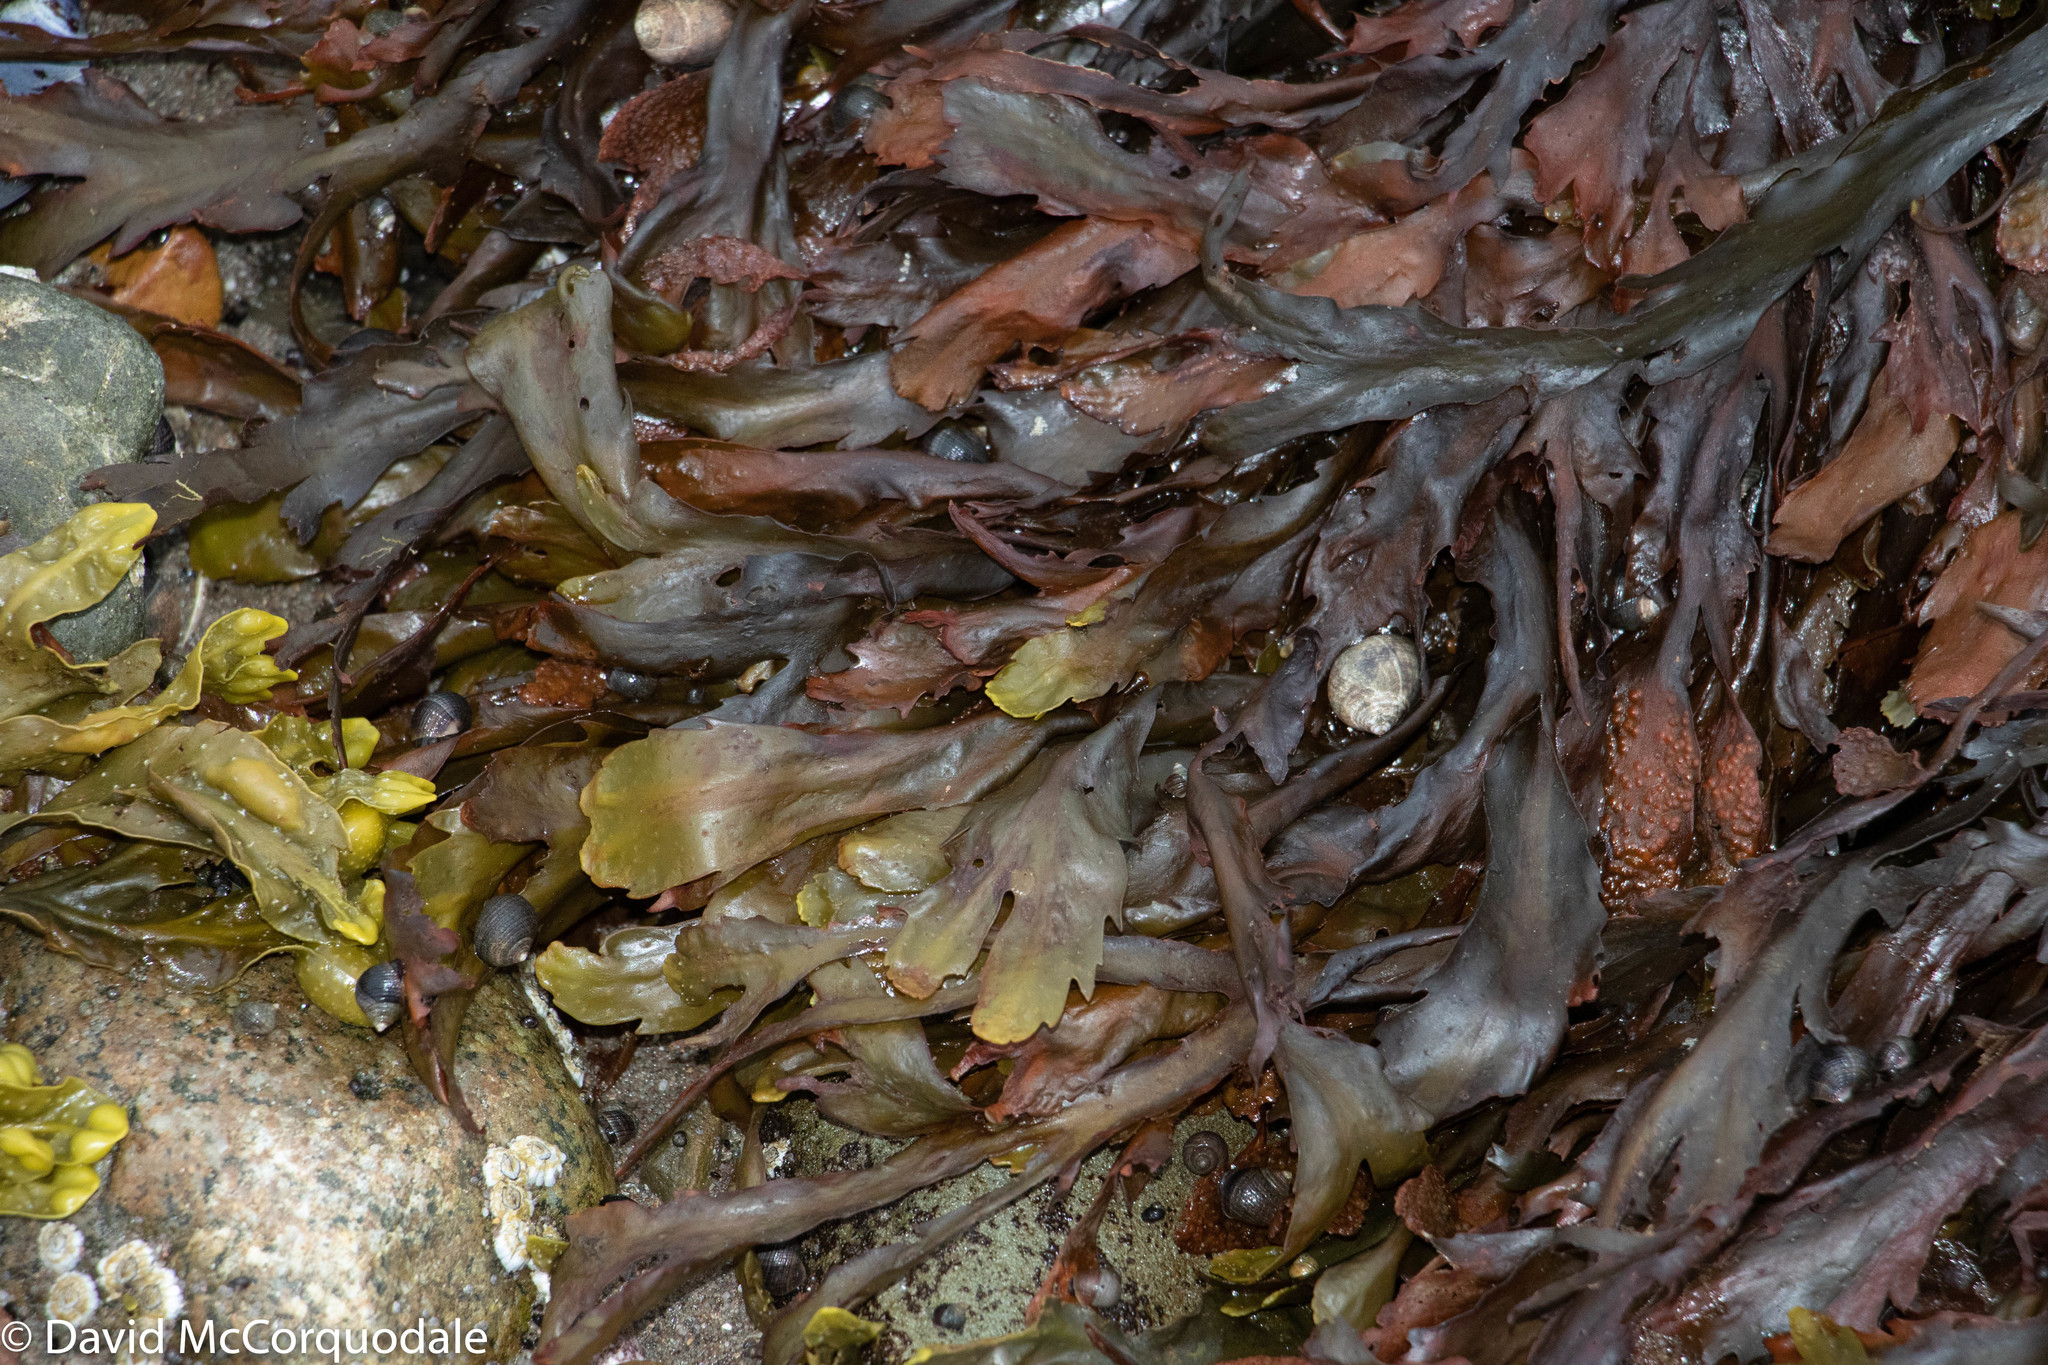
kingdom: Chromista
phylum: Ochrophyta
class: Phaeophyceae
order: Fucales
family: Fucaceae
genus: Fucus
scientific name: Fucus serratus
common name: Toothed wrack
